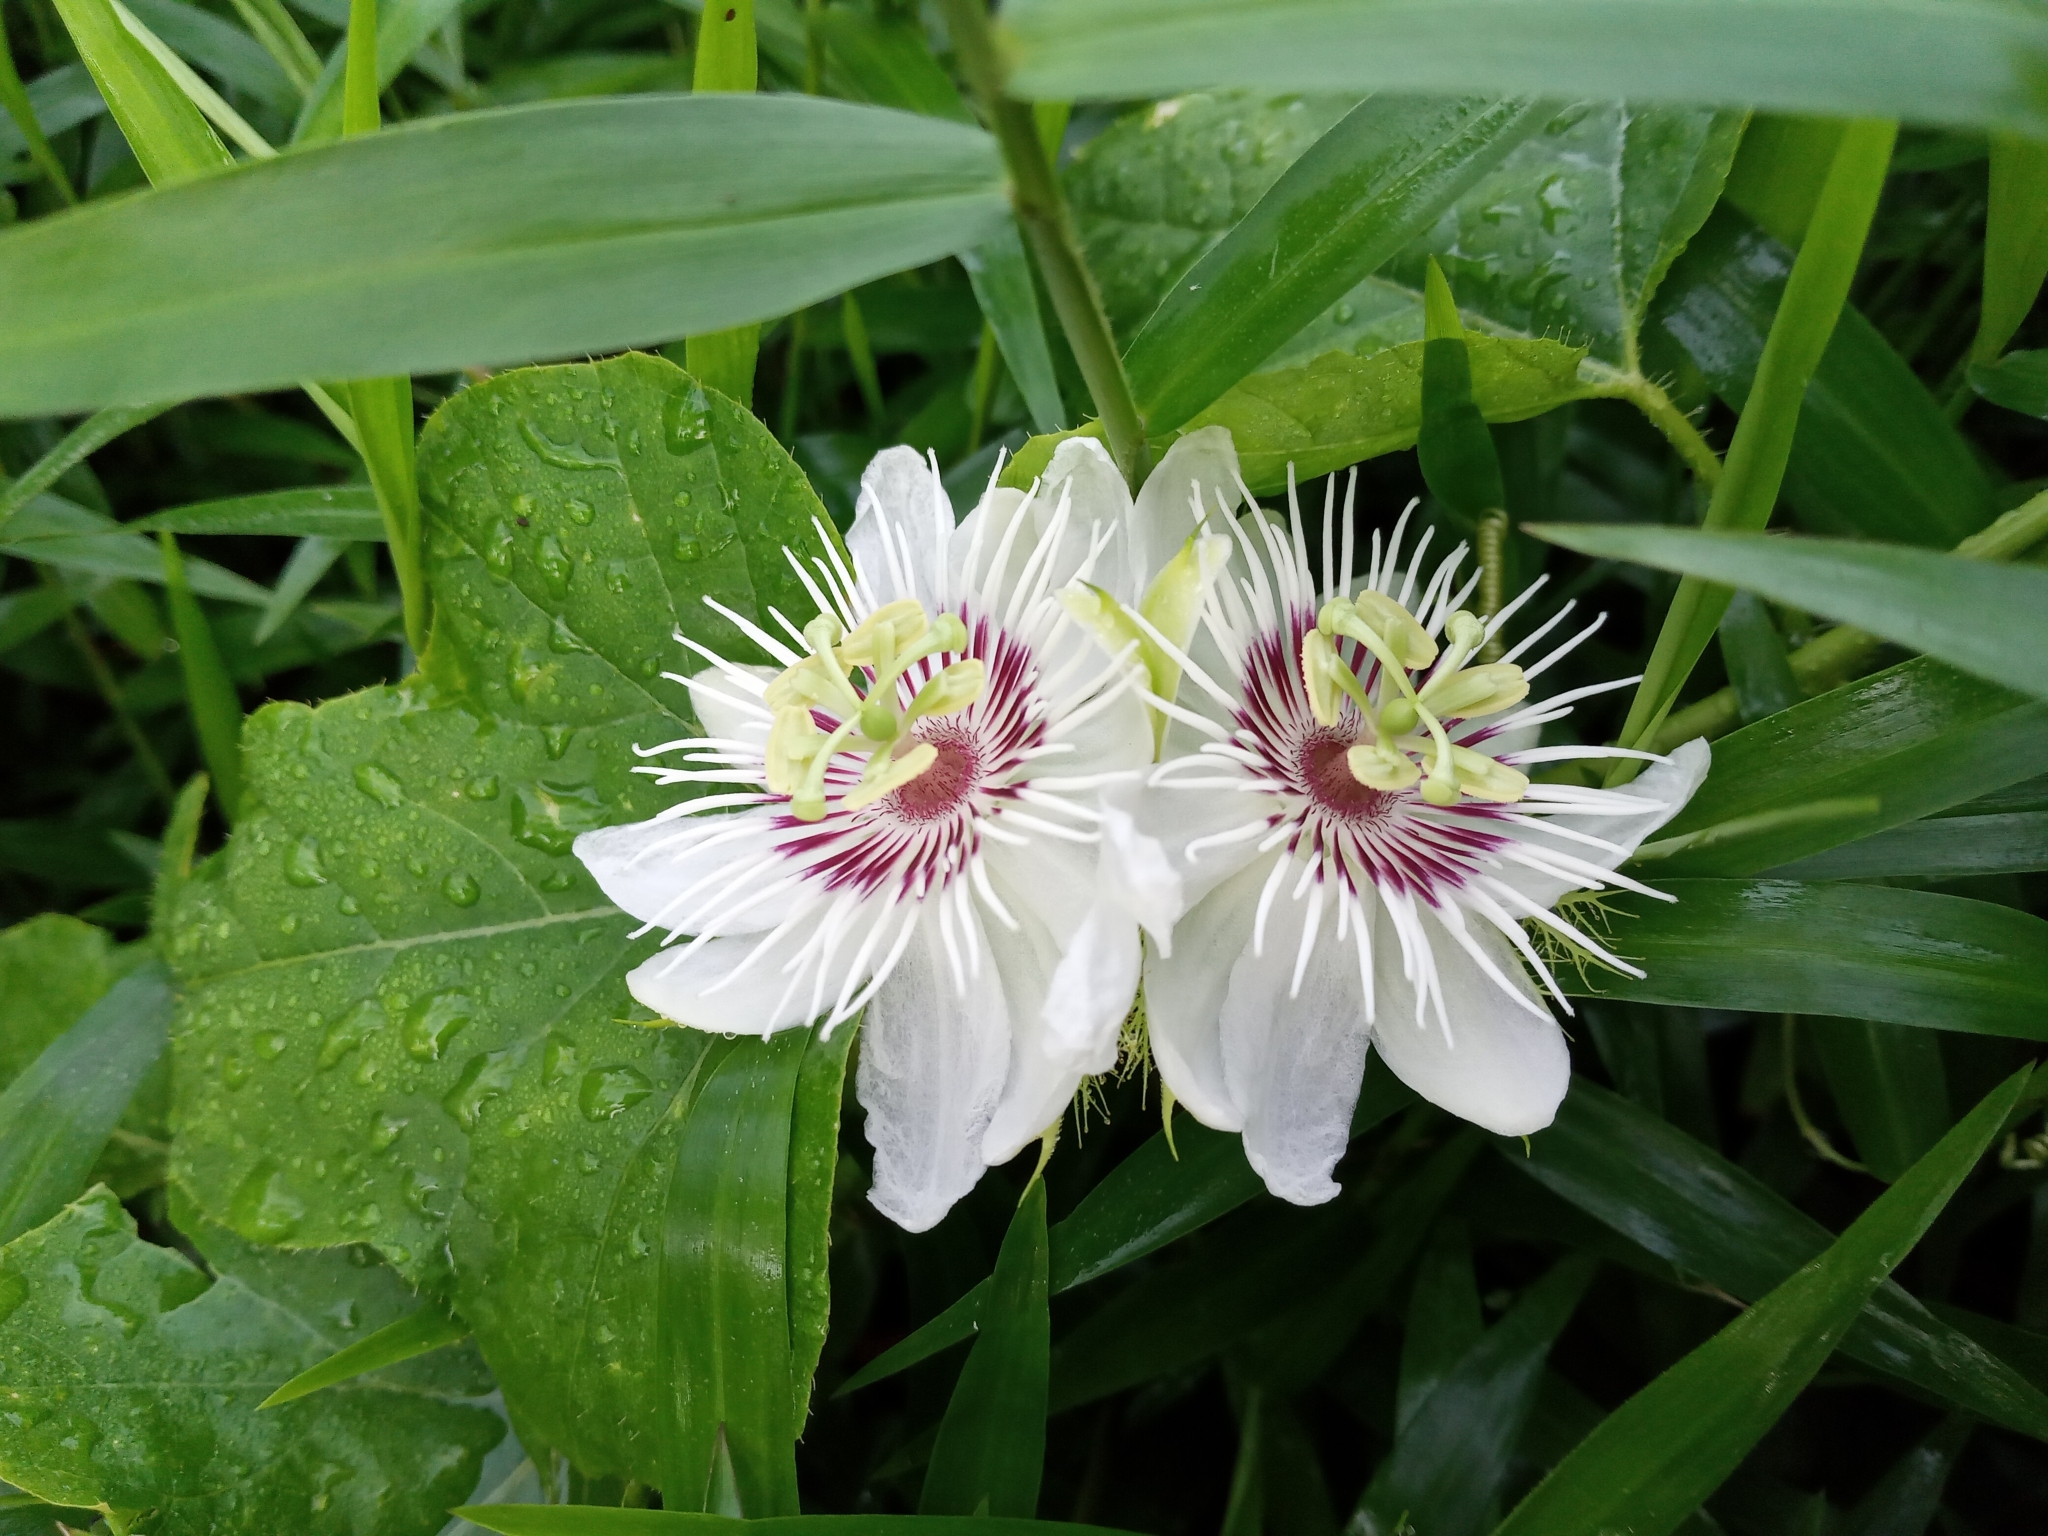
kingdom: Plantae
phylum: Tracheophyta
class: Magnoliopsida
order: Malpighiales
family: Passifloraceae
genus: Passiflora
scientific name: Passiflora vesicaria
